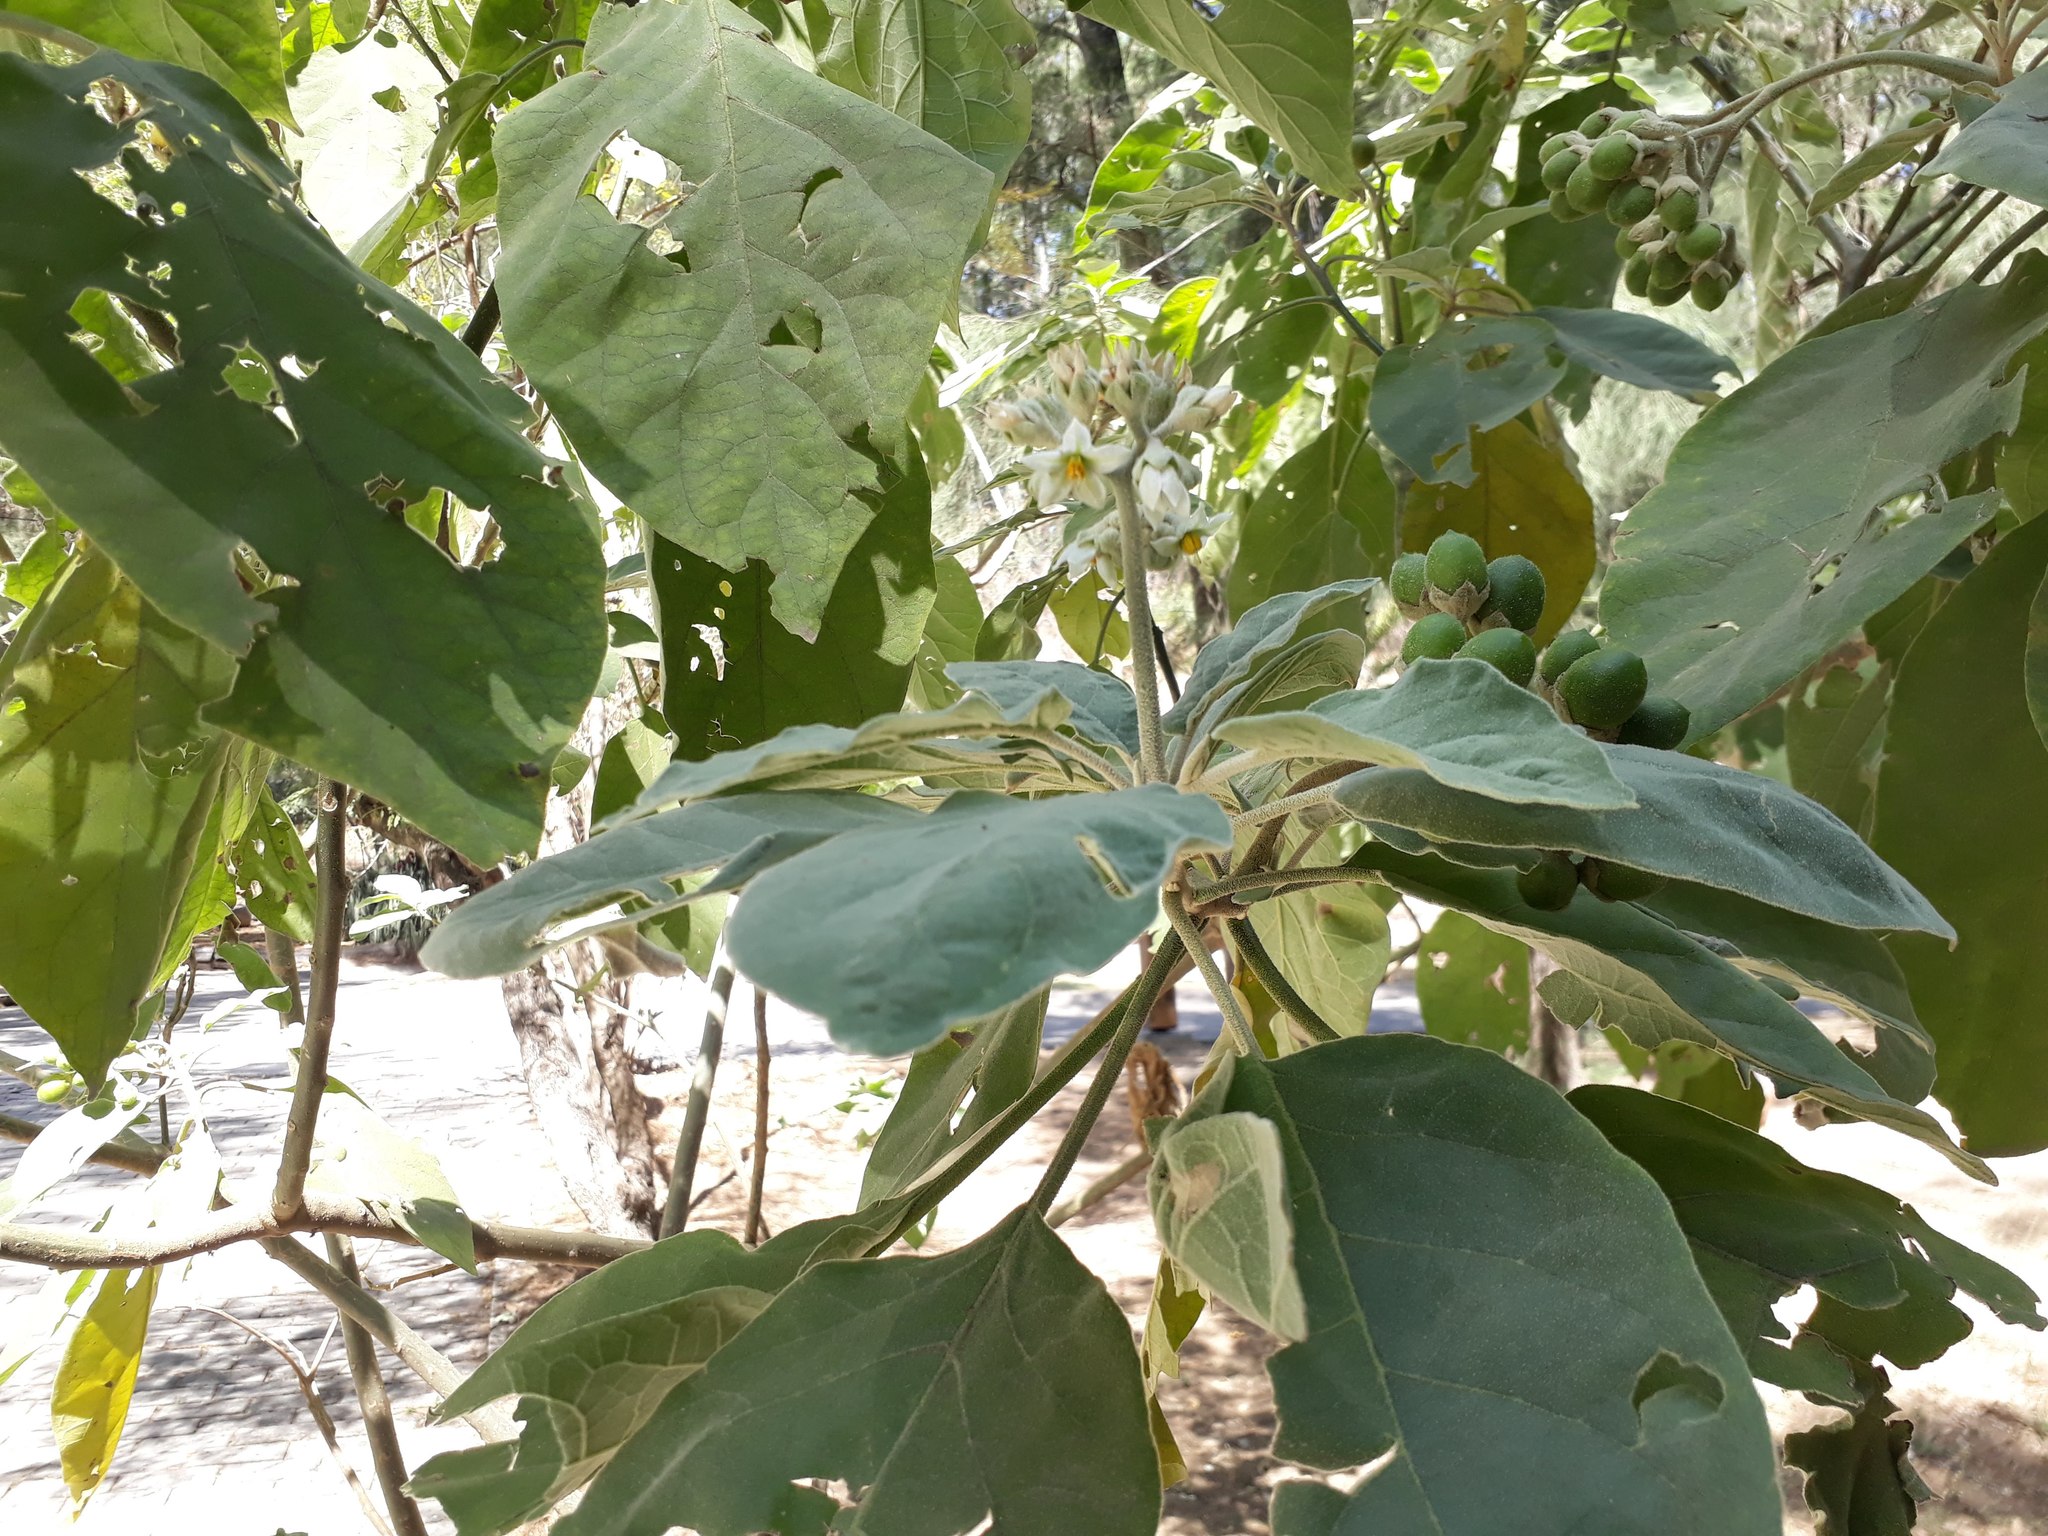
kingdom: Plantae
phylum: Tracheophyta
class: Magnoliopsida
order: Solanales
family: Solanaceae
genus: Solanum
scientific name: Solanum erianthum
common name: Tobacco-tree
